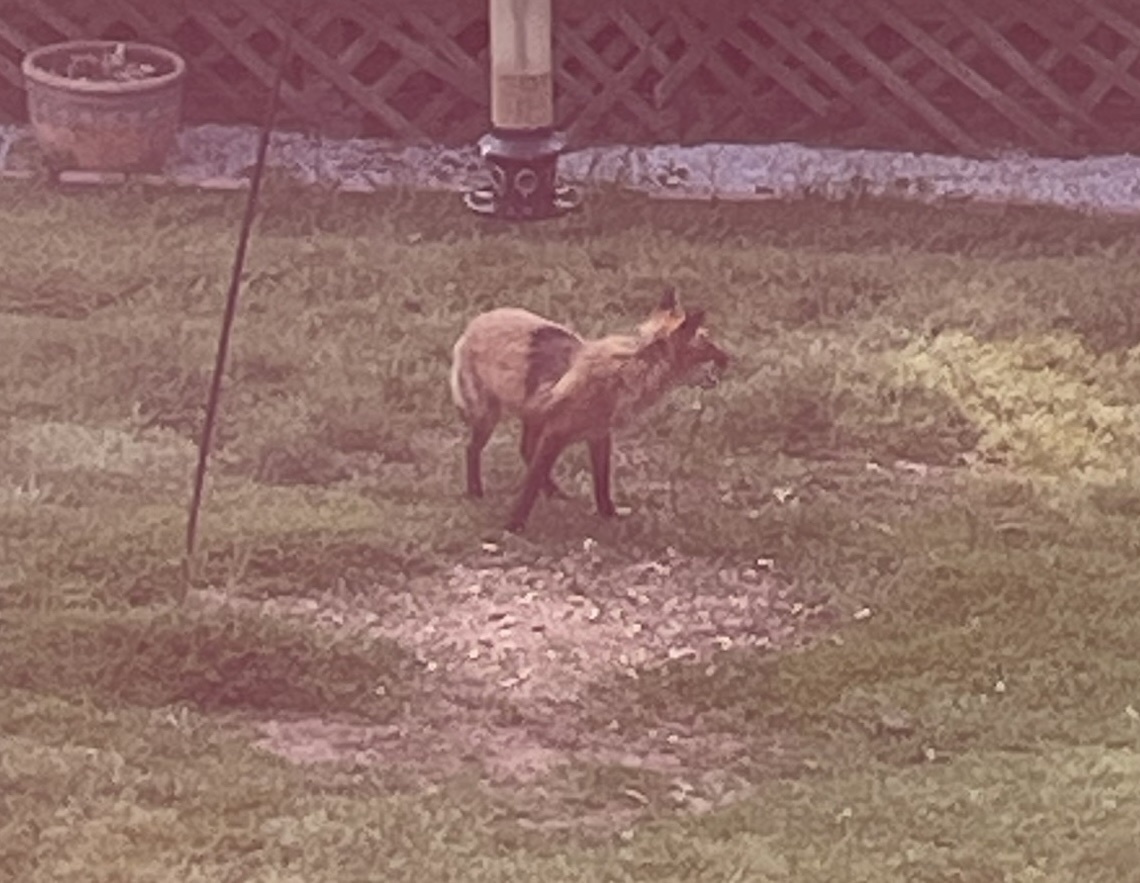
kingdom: Animalia
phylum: Chordata
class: Mammalia
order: Carnivora
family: Canidae
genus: Vulpes
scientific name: Vulpes vulpes
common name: Red fox
